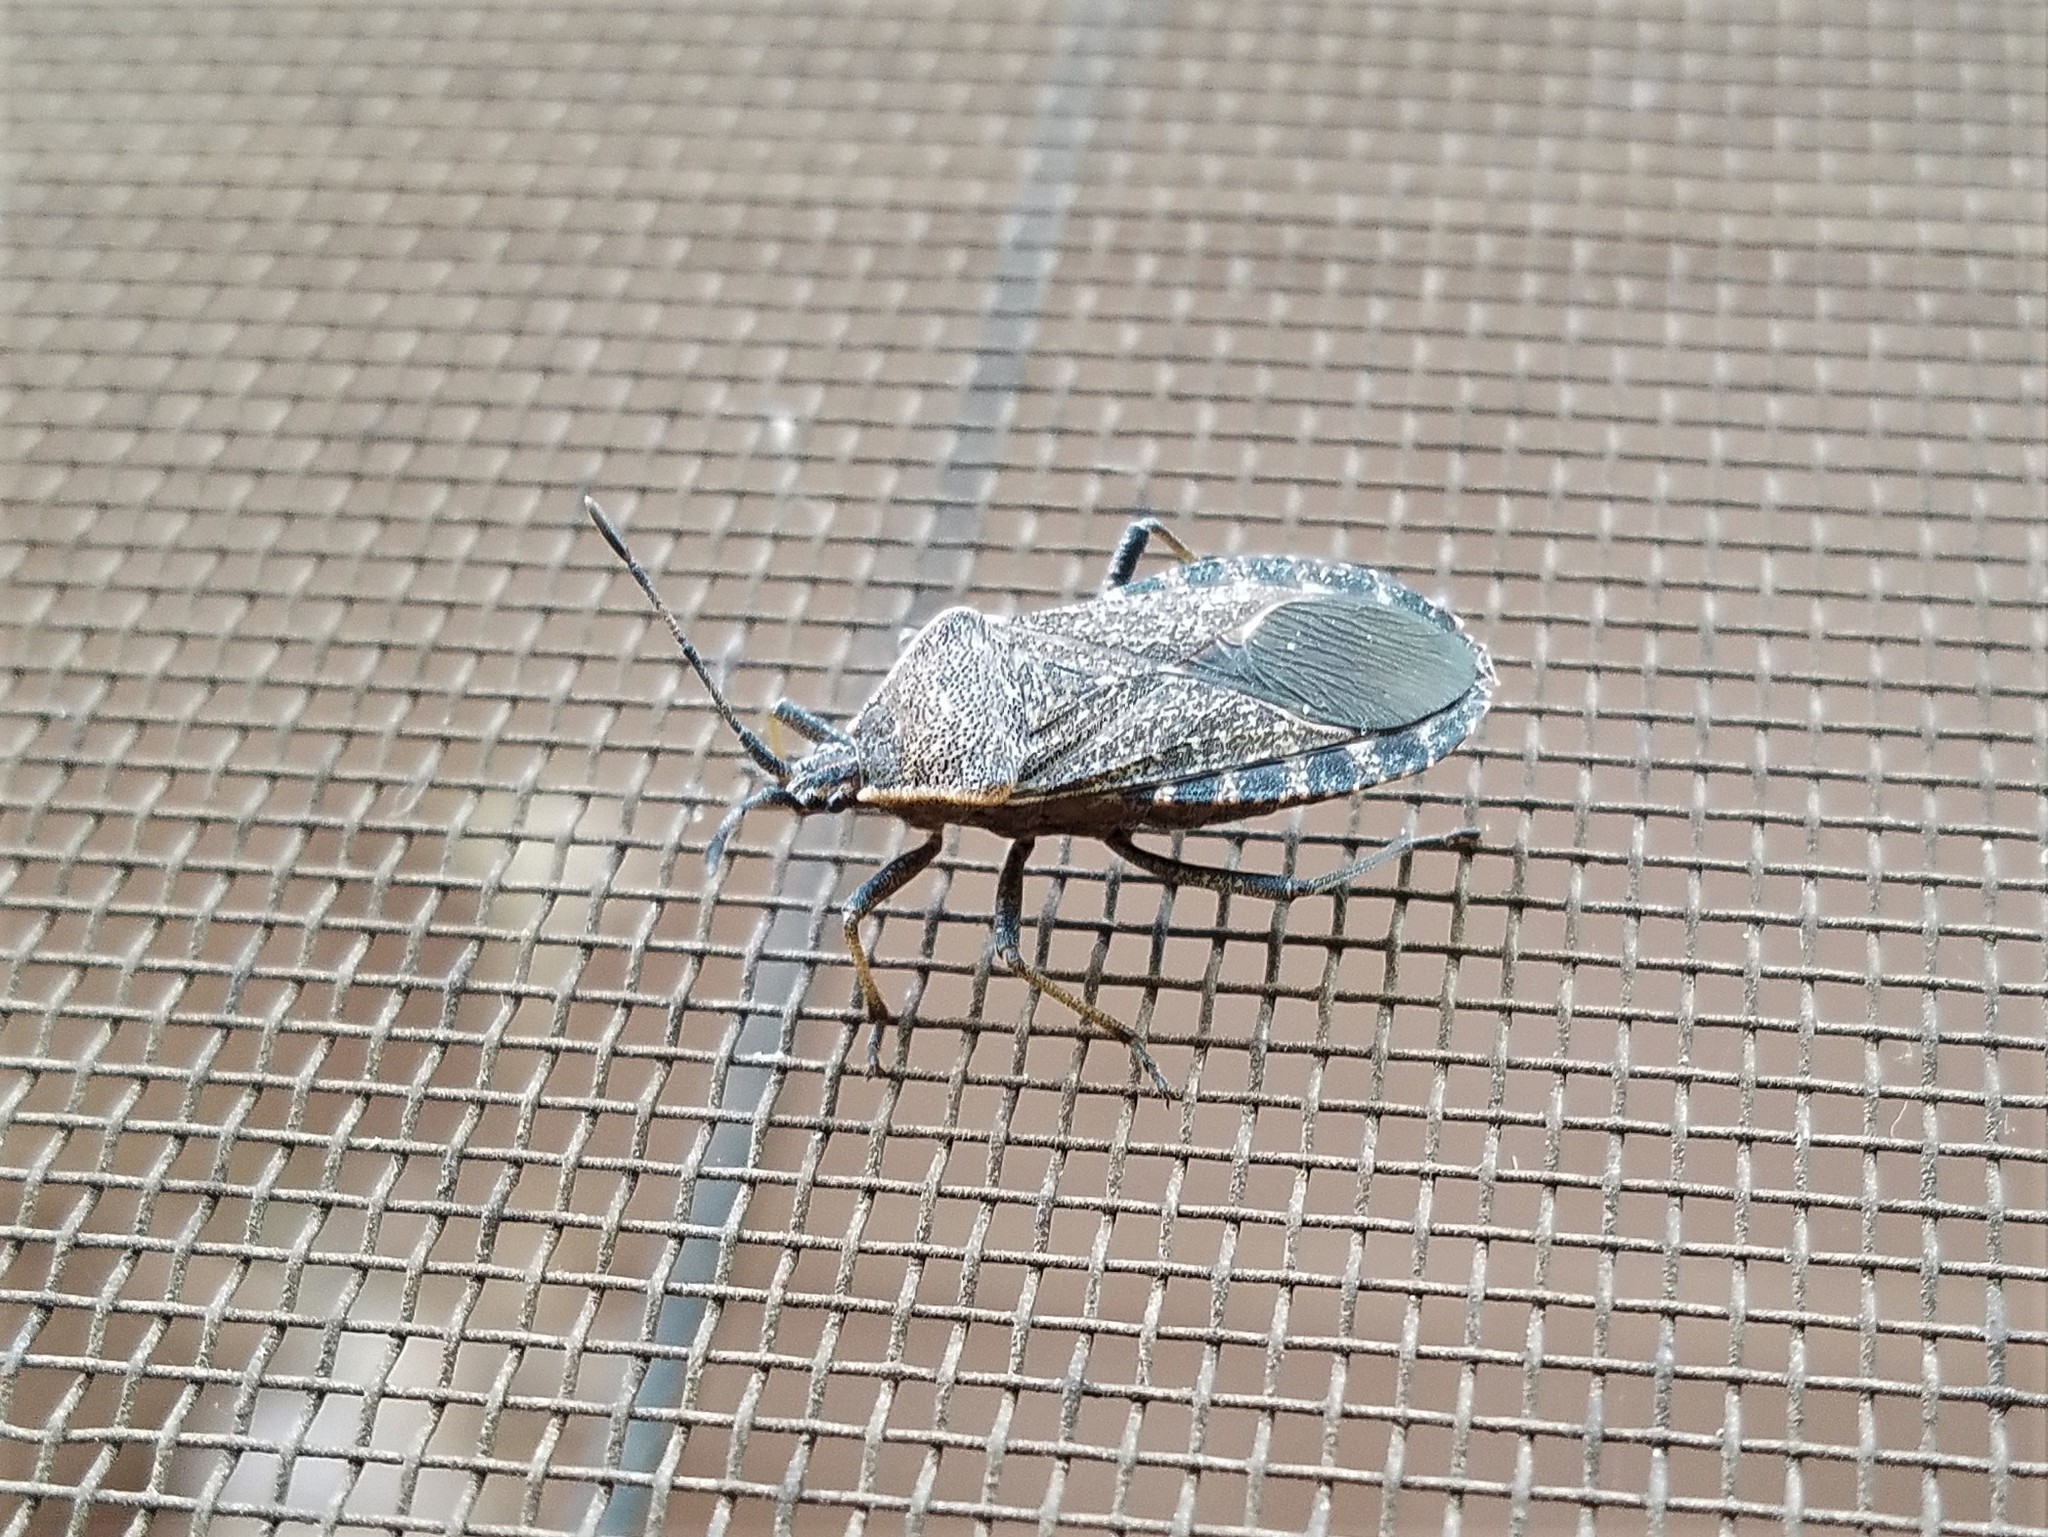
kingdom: Animalia
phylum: Arthropoda
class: Insecta
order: Hemiptera
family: Coreidae
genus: Anasa
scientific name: Anasa tristis
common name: Squash bug
